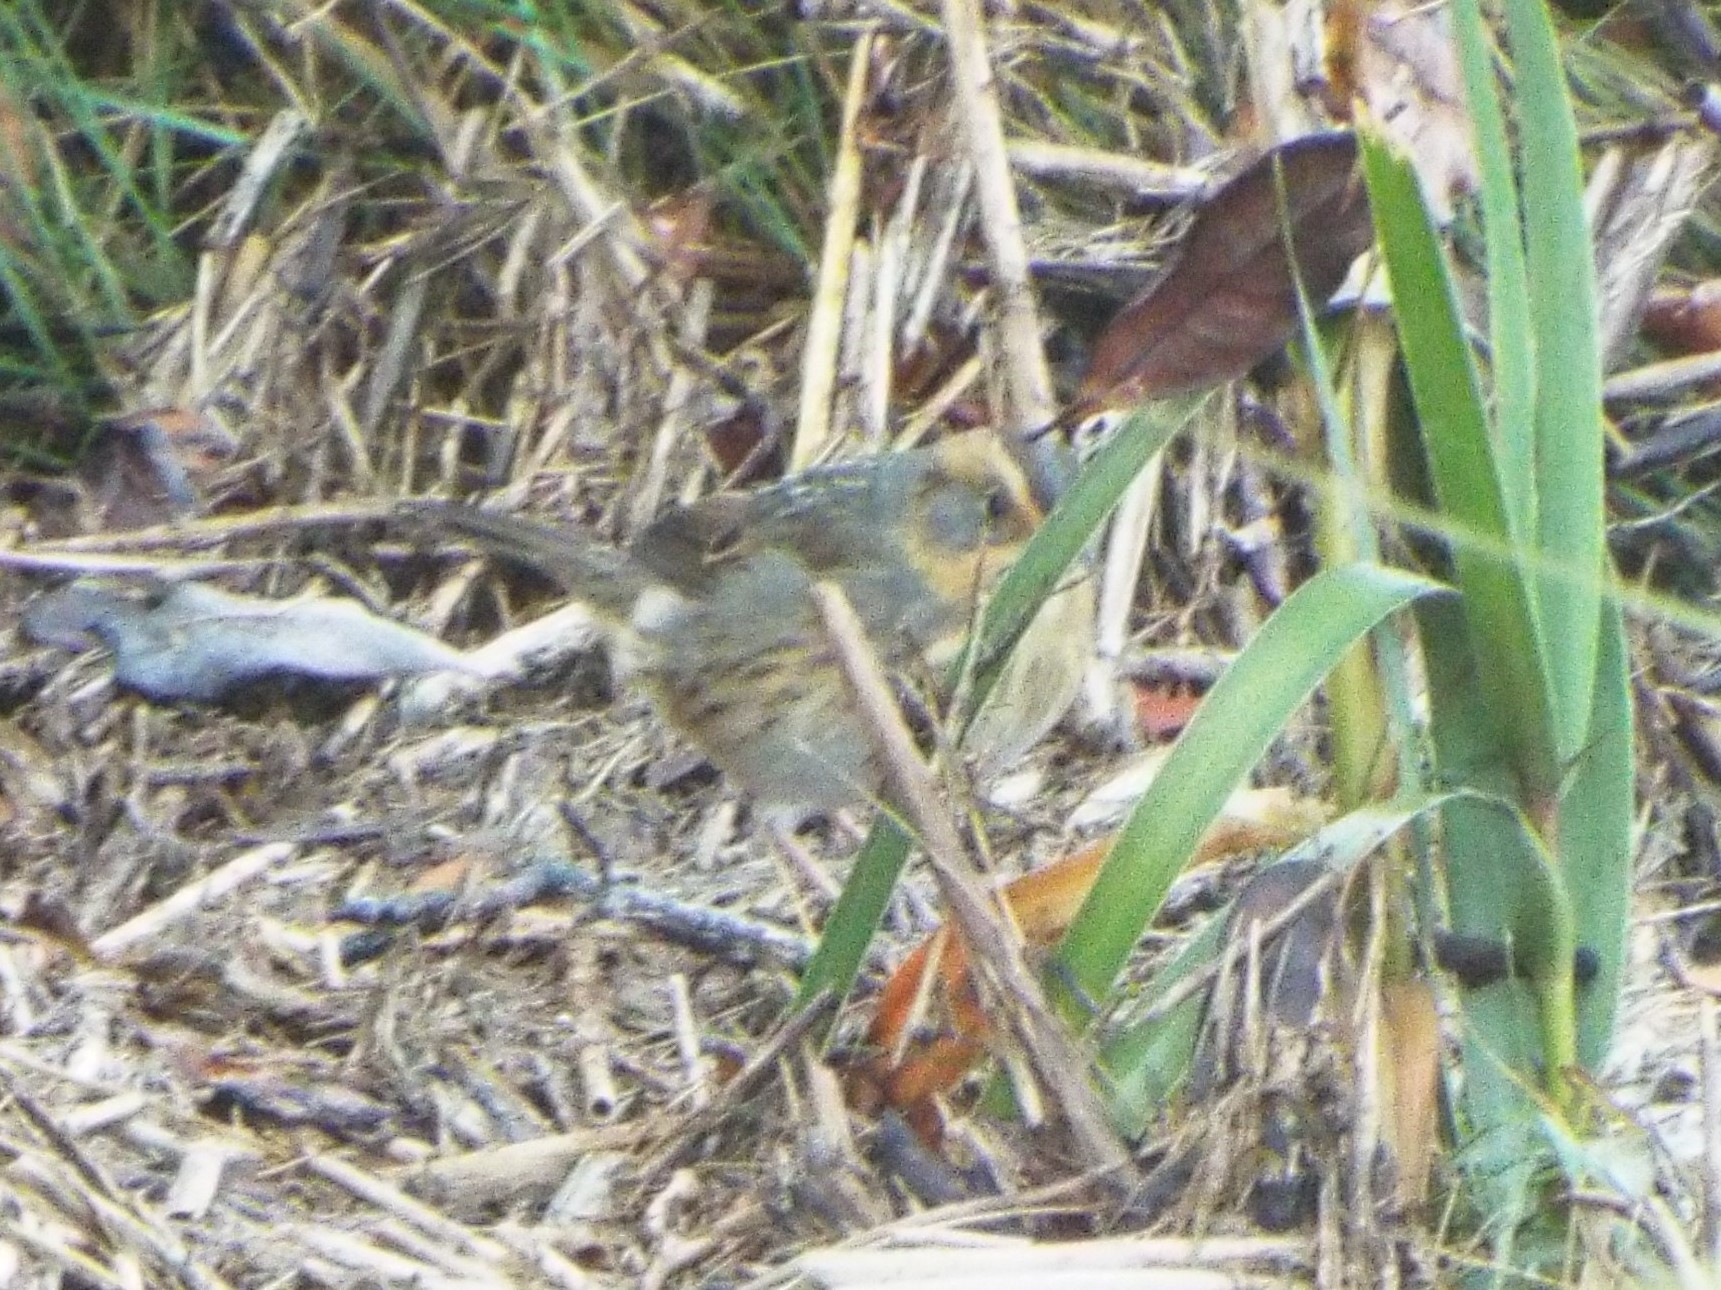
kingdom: Animalia
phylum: Chordata
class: Aves
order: Passeriformes
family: Passerellidae
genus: Ammospiza
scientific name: Ammospiza caudacuta
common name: Saltmarsh sparrow
